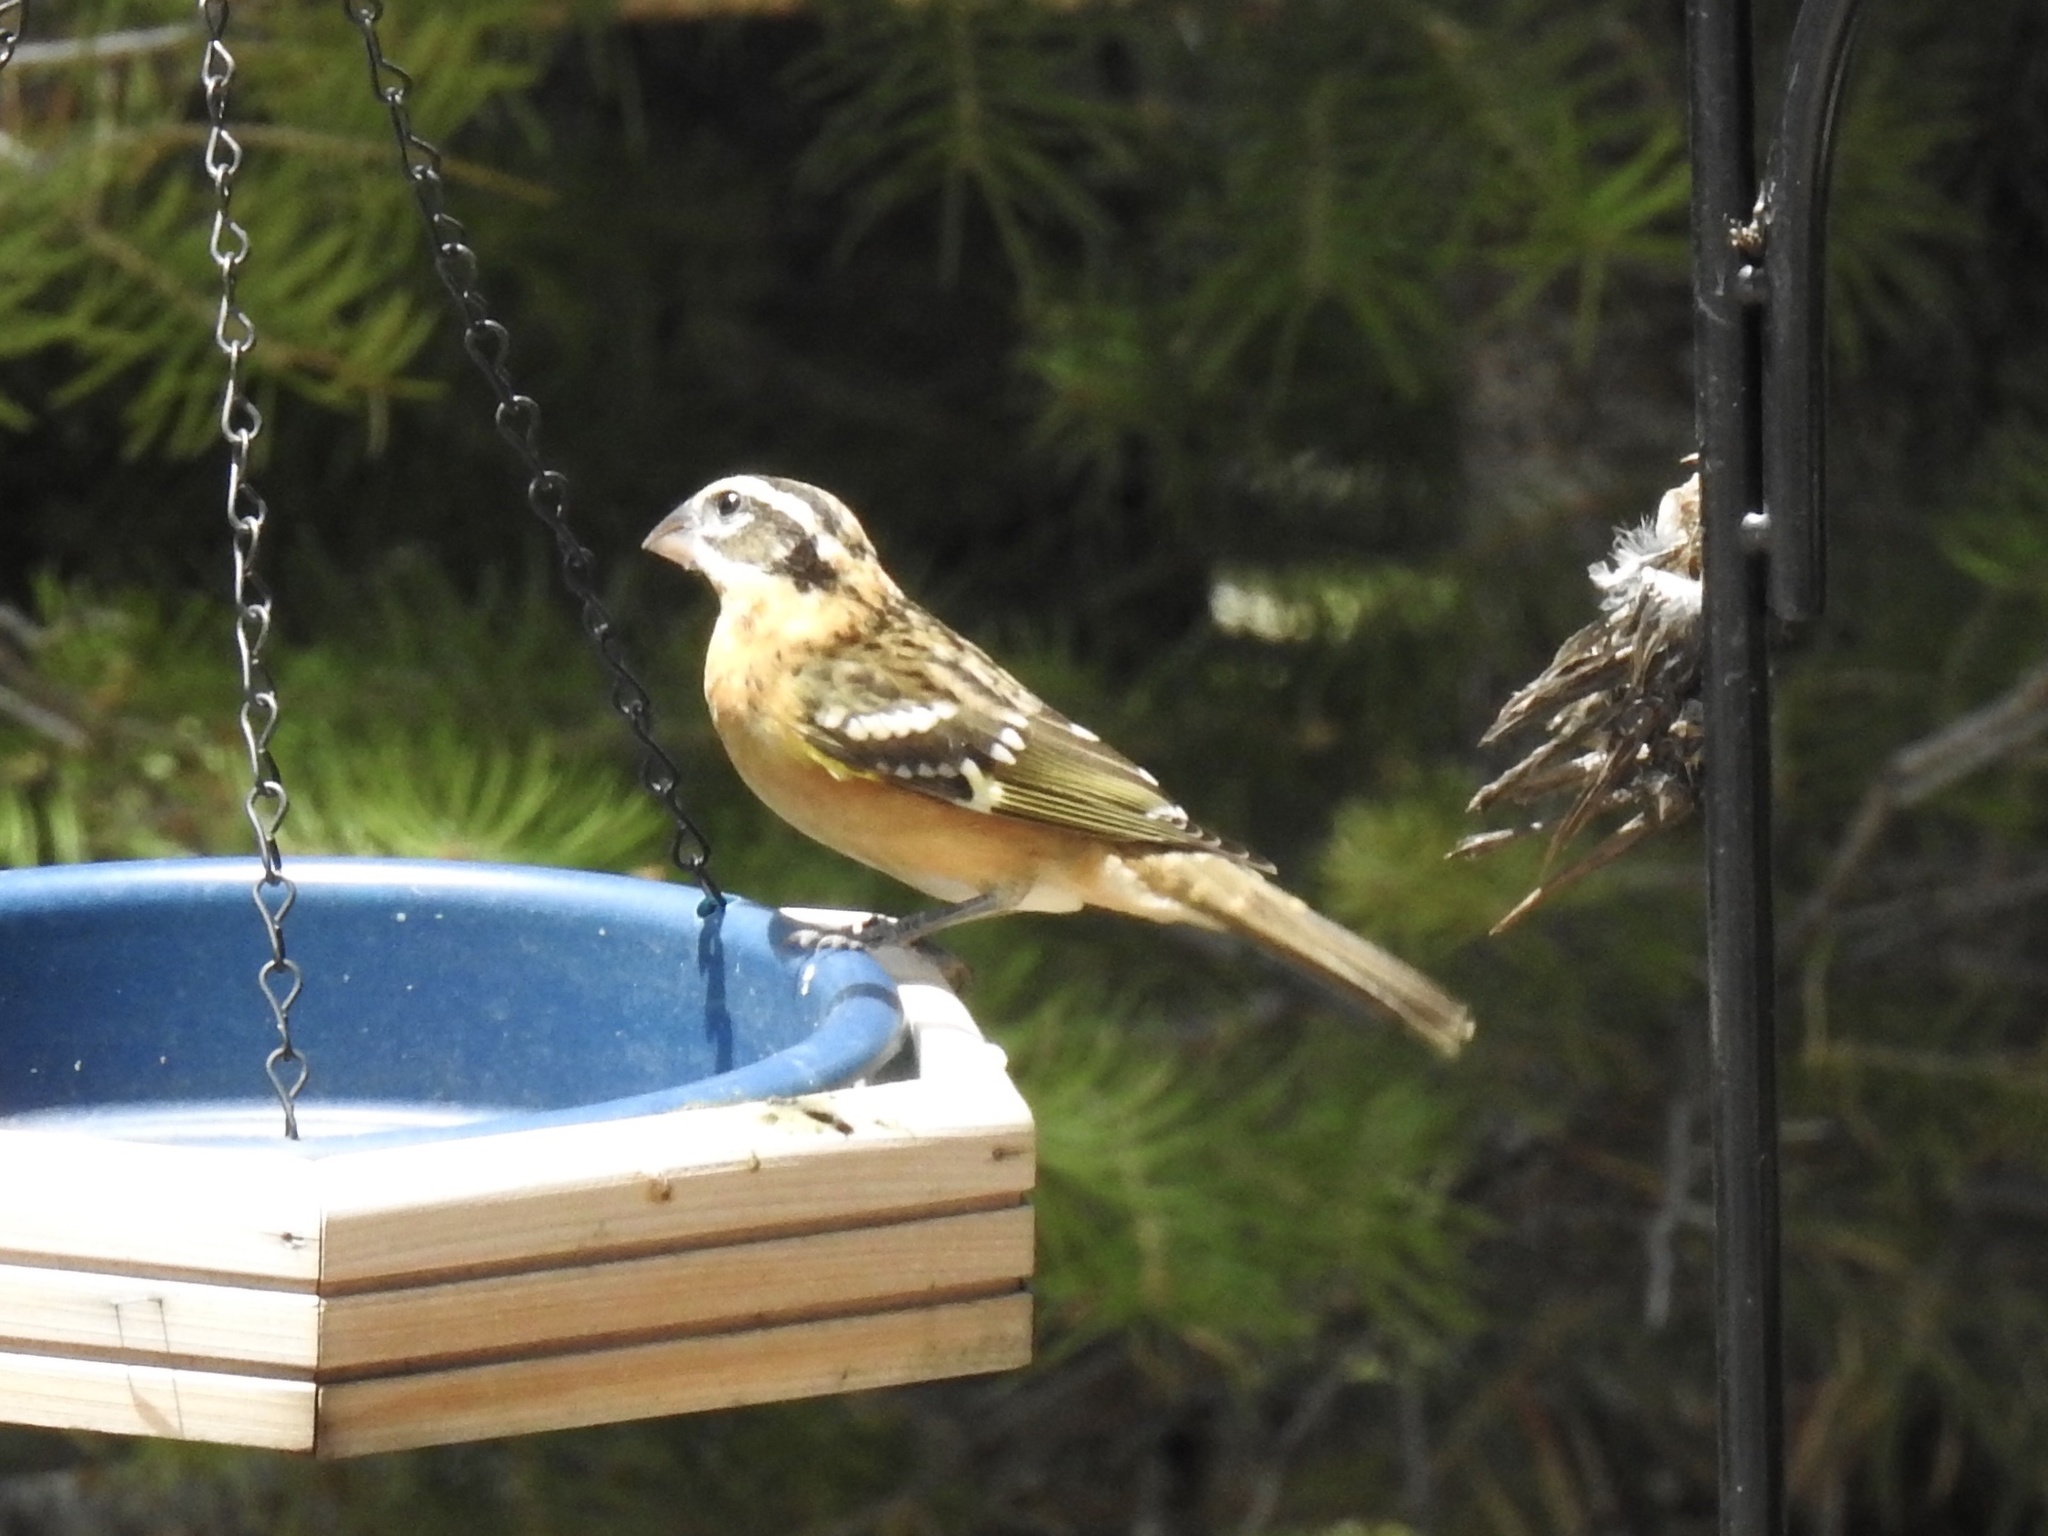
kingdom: Animalia
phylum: Chordata
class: Aves
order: Passeriformes
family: Cardinalidae
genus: Pheucticus
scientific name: Pheucticus melanocephalus
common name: Black-headed grosbeak
